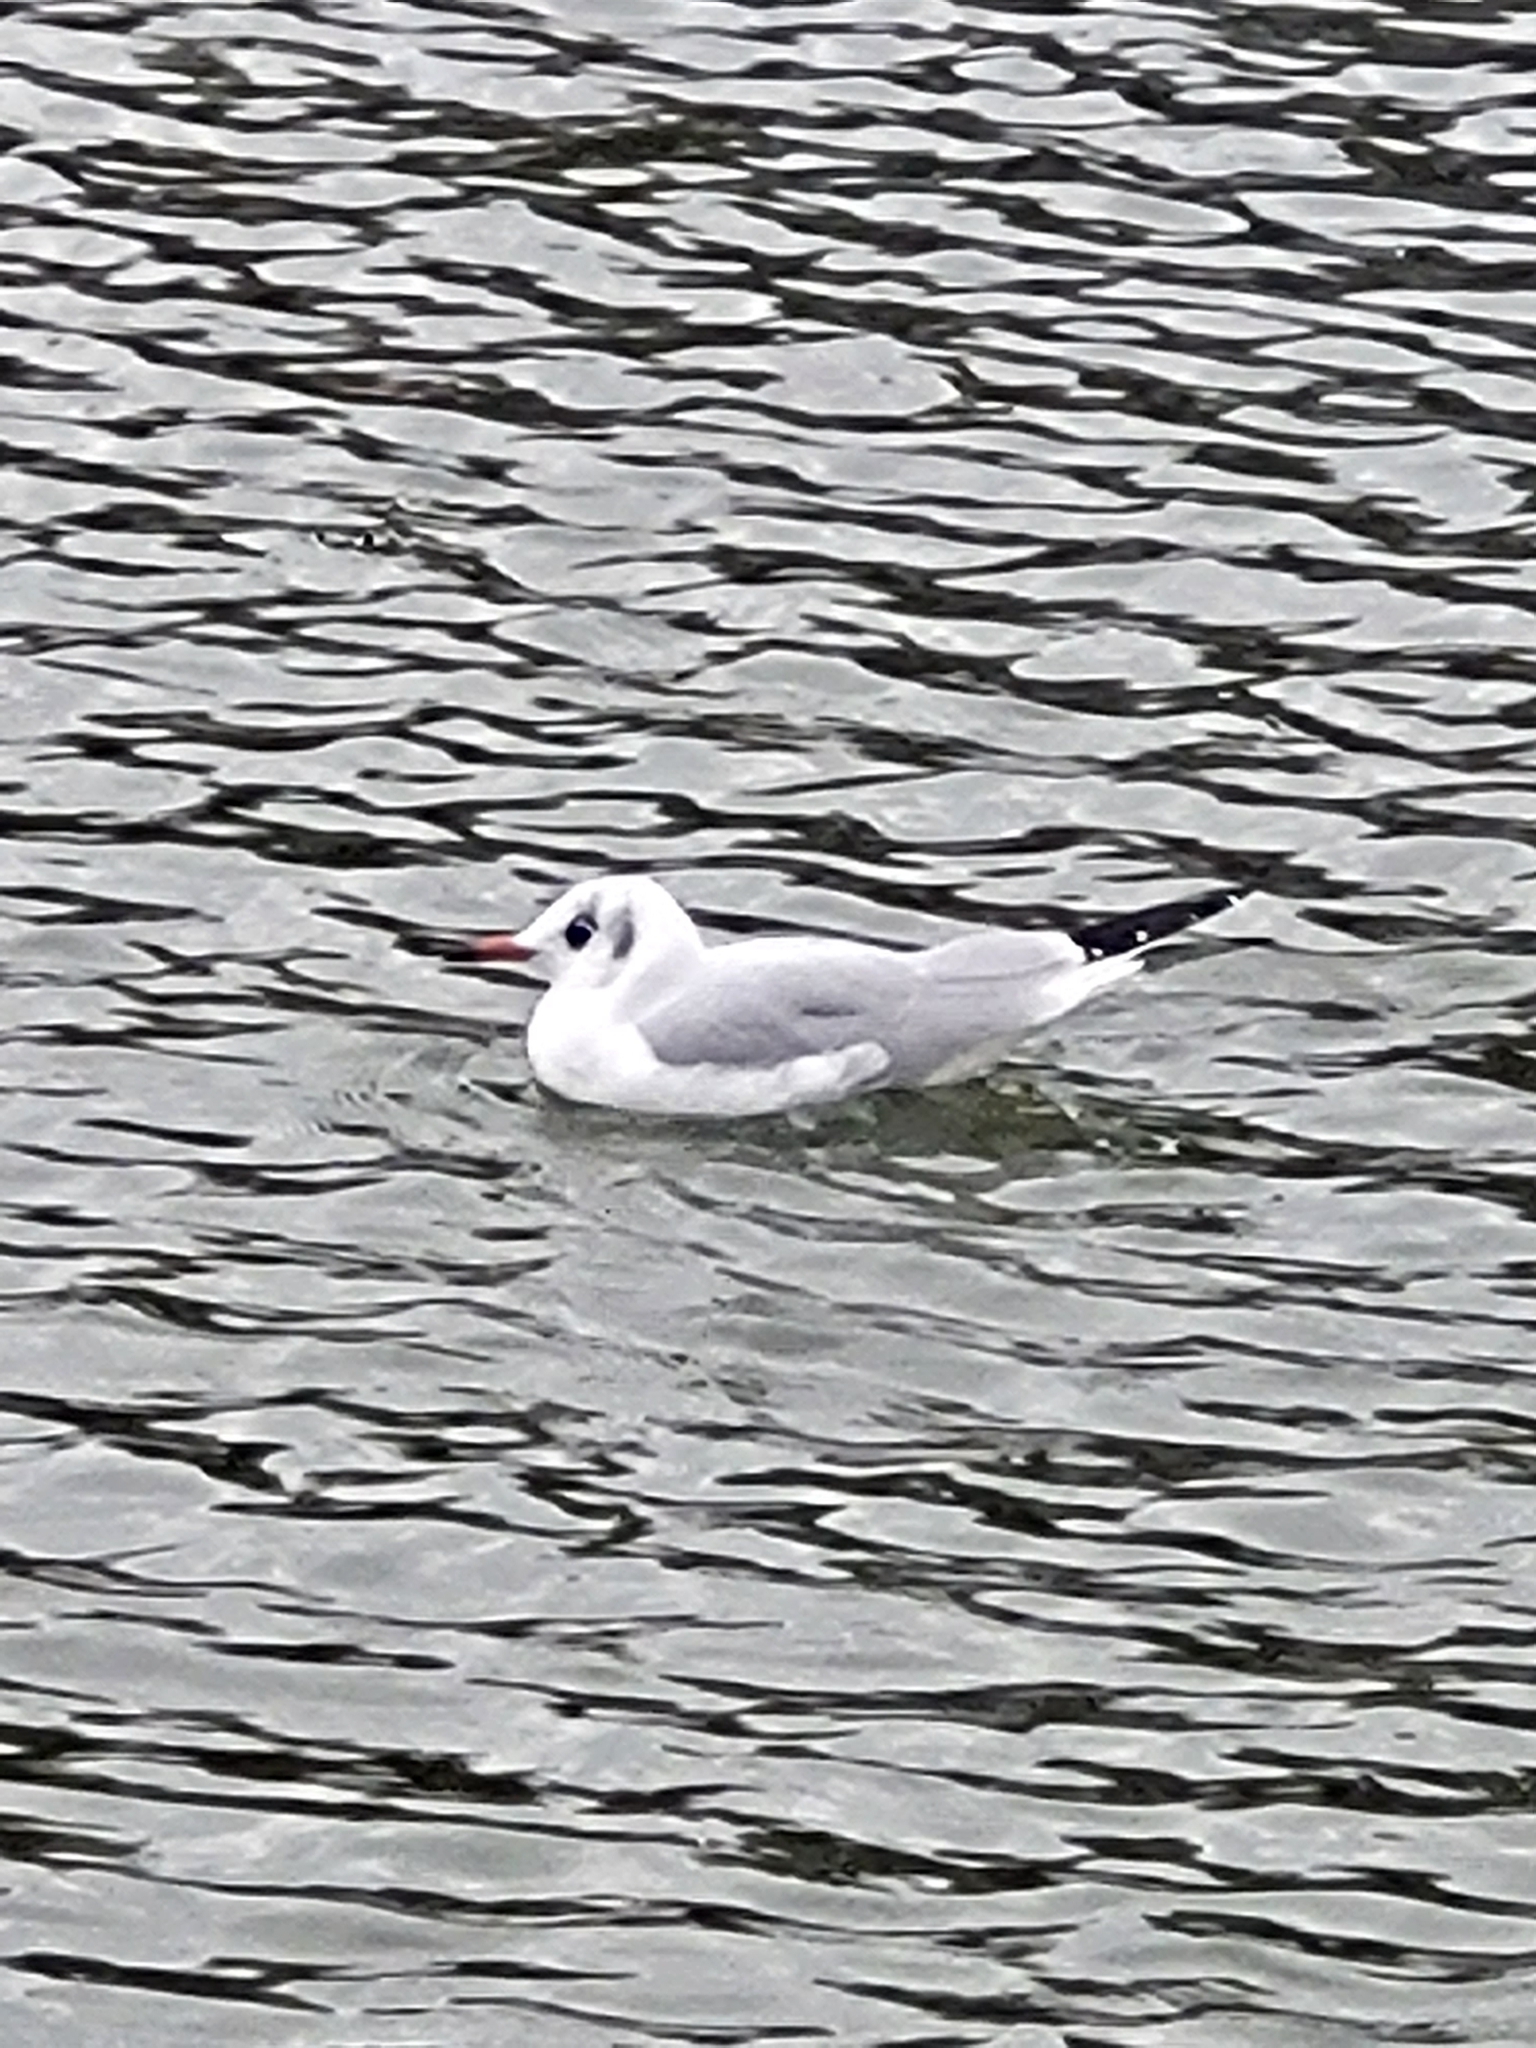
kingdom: Animalia
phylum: Chordata
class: Aves
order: Charadriiformes
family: Laridae
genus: Chroicocephalus
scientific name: Chroicocephalus ridibundus
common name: Black-headed gull
